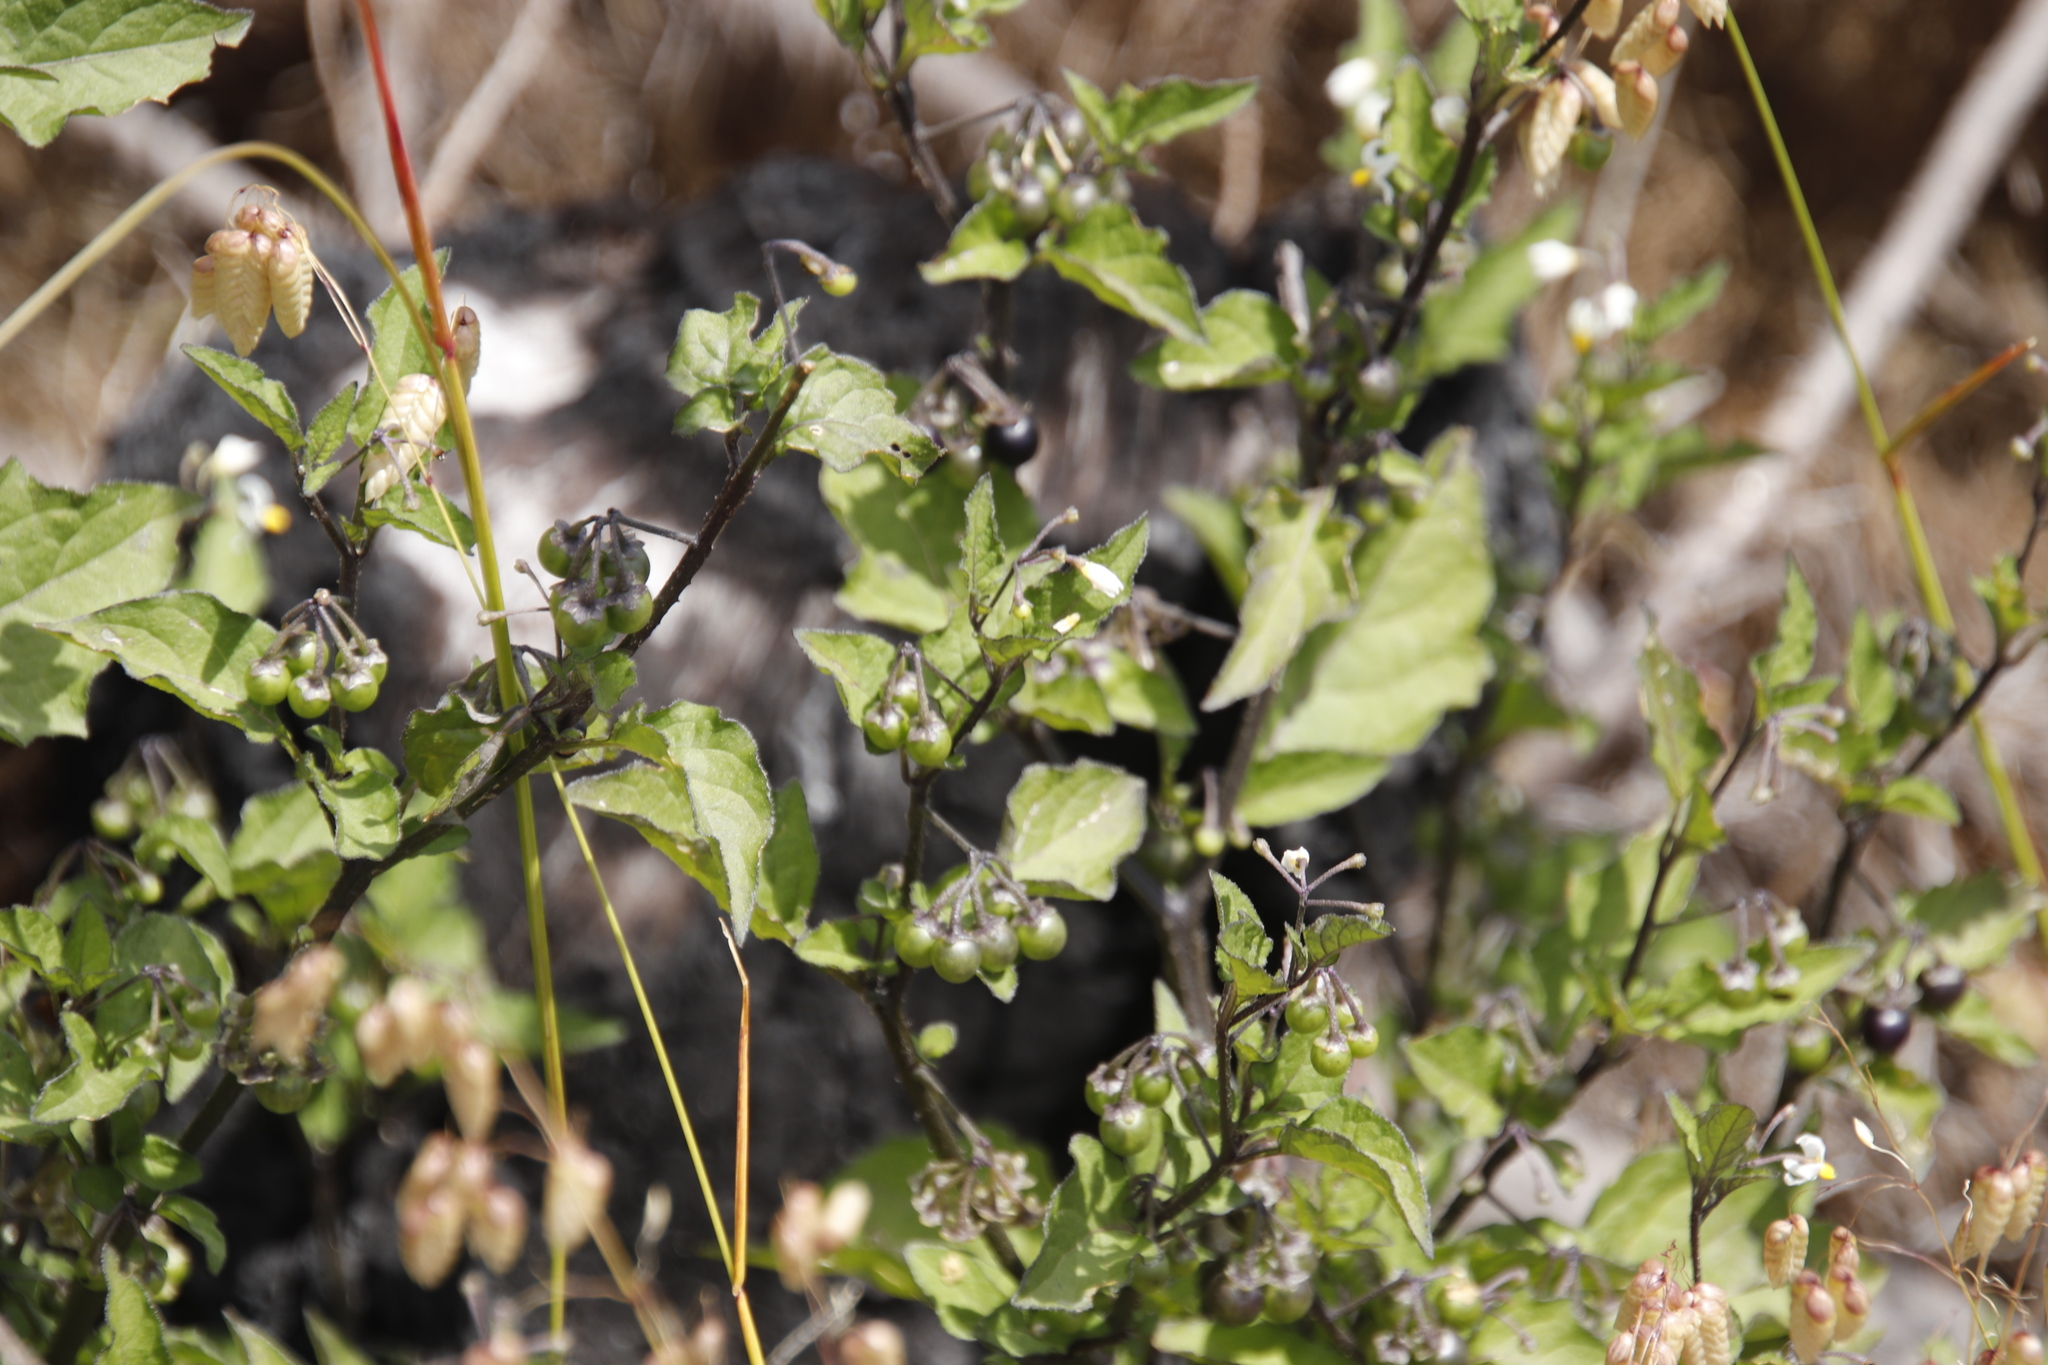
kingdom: Plantae
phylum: Tracheophyta
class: Magnoliopsida
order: Solanales
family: Solanaceae
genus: Solanum
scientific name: Solanum nigrum
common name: Black nightshade
